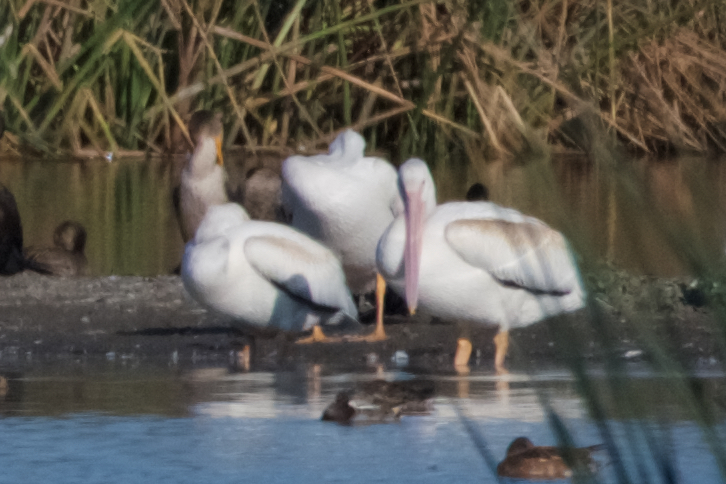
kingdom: Animalia
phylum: Chordata
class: Aves
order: Pelecaniformes
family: Pelecanidae
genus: Pelecanus
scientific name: Pelecanus erythrorhynchos
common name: American white pelican
